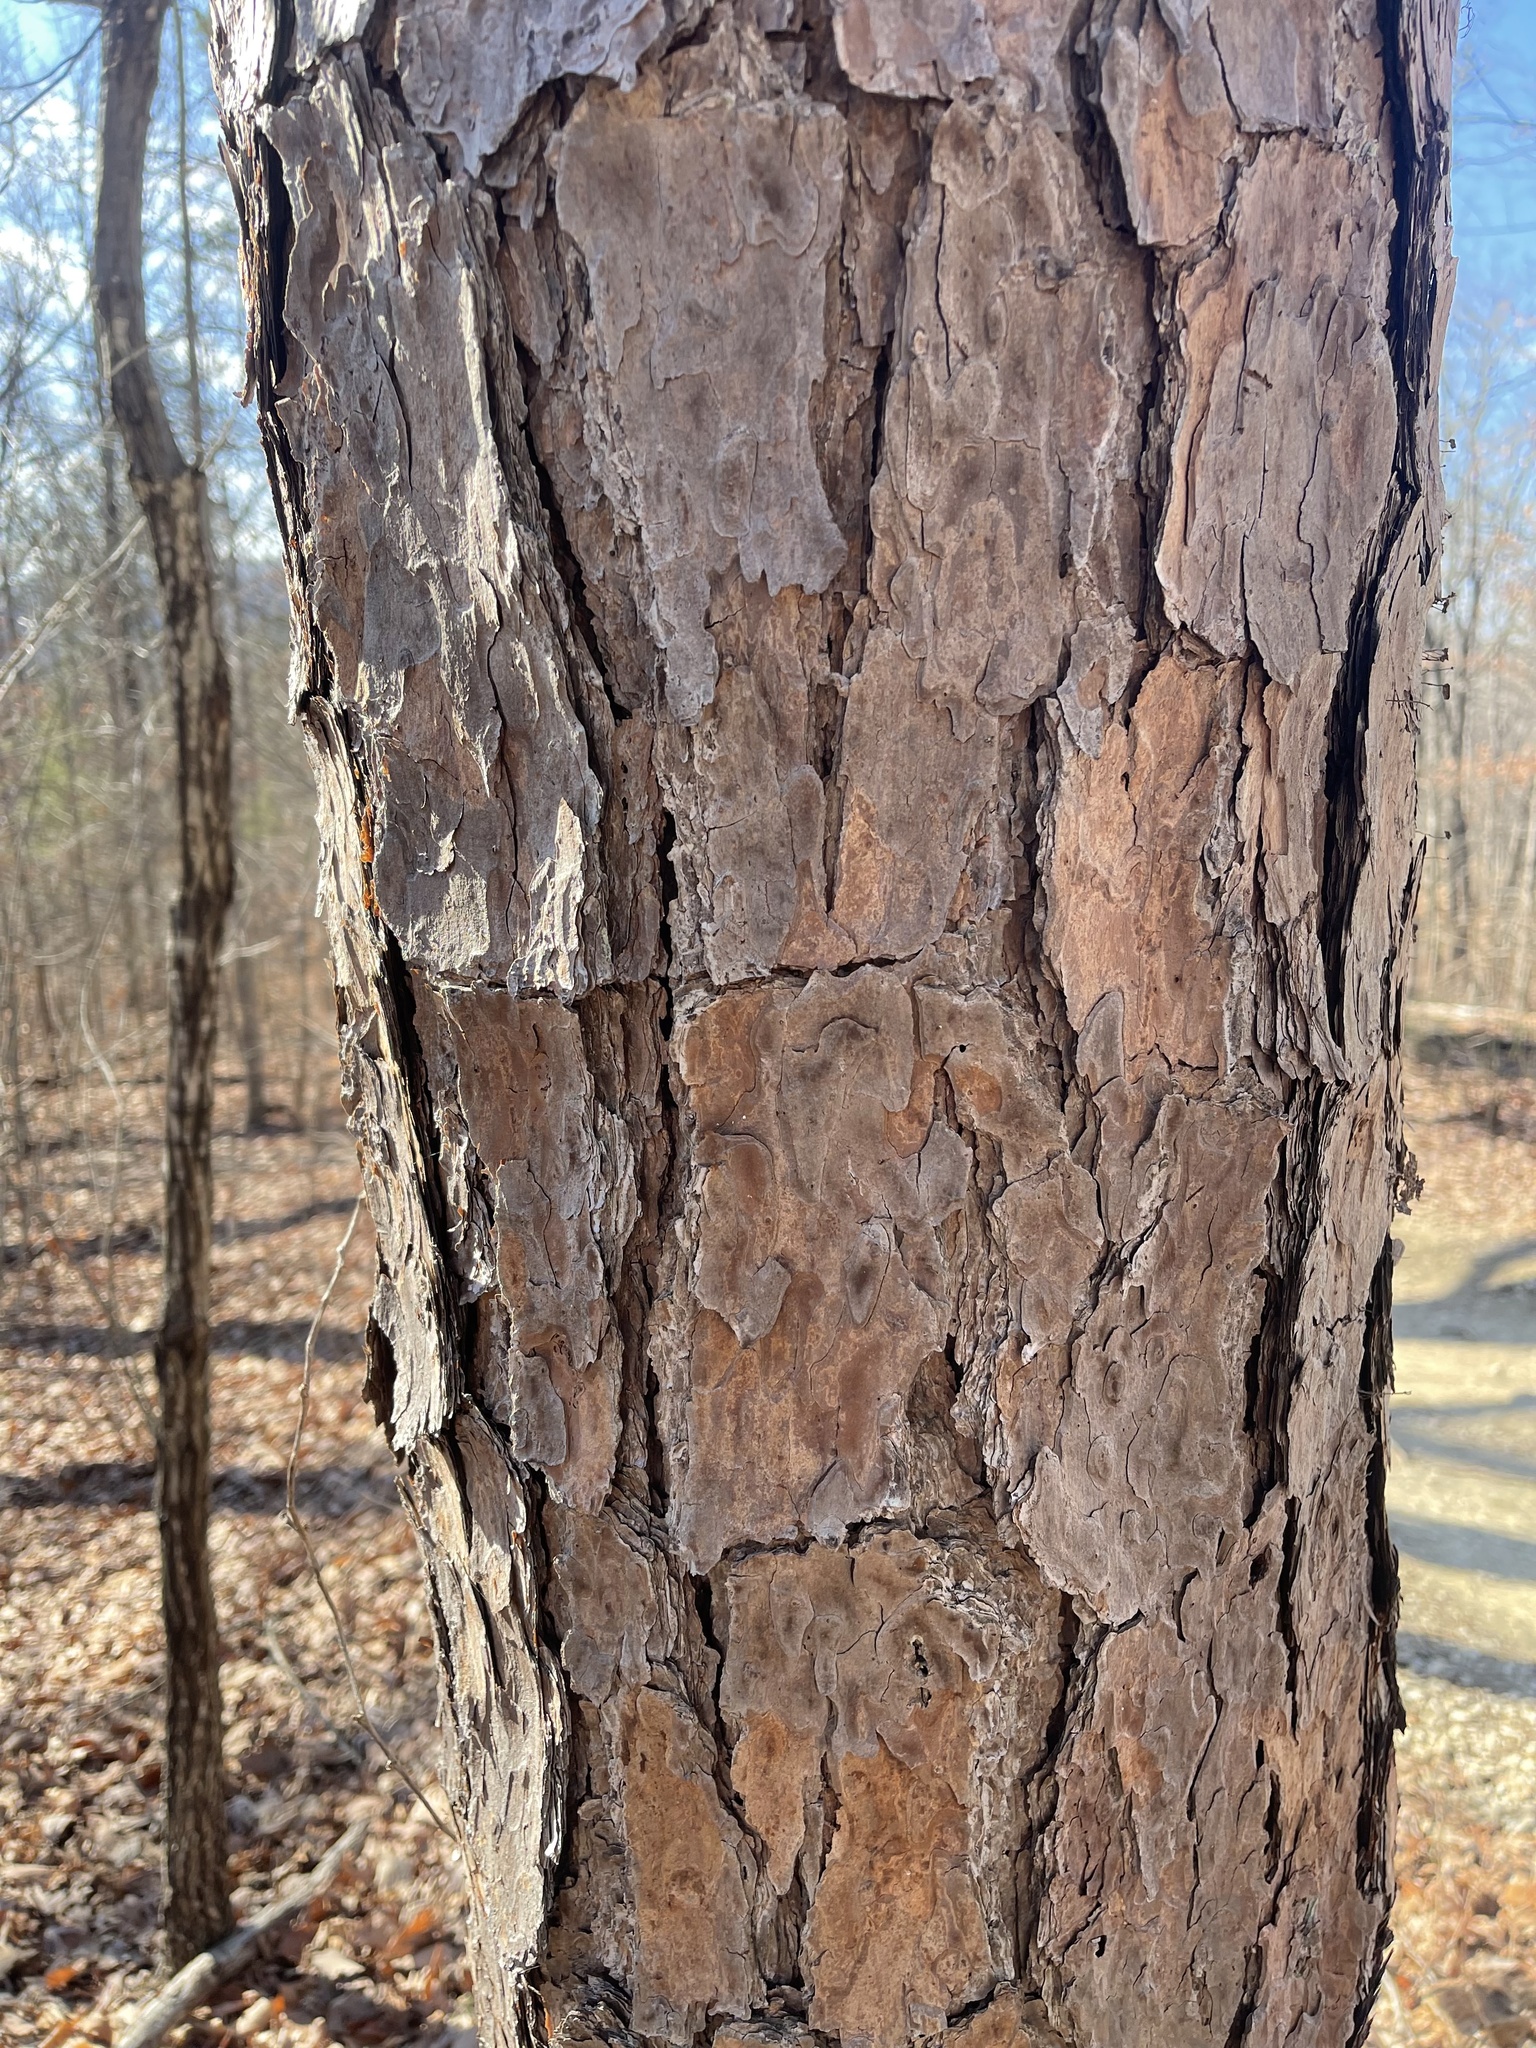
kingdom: Plantae
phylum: Tracheophyta
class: Pinopsida
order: Pinales
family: Pinaceae
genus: Pinus
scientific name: Pinus echinata
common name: Shortleaf pine
